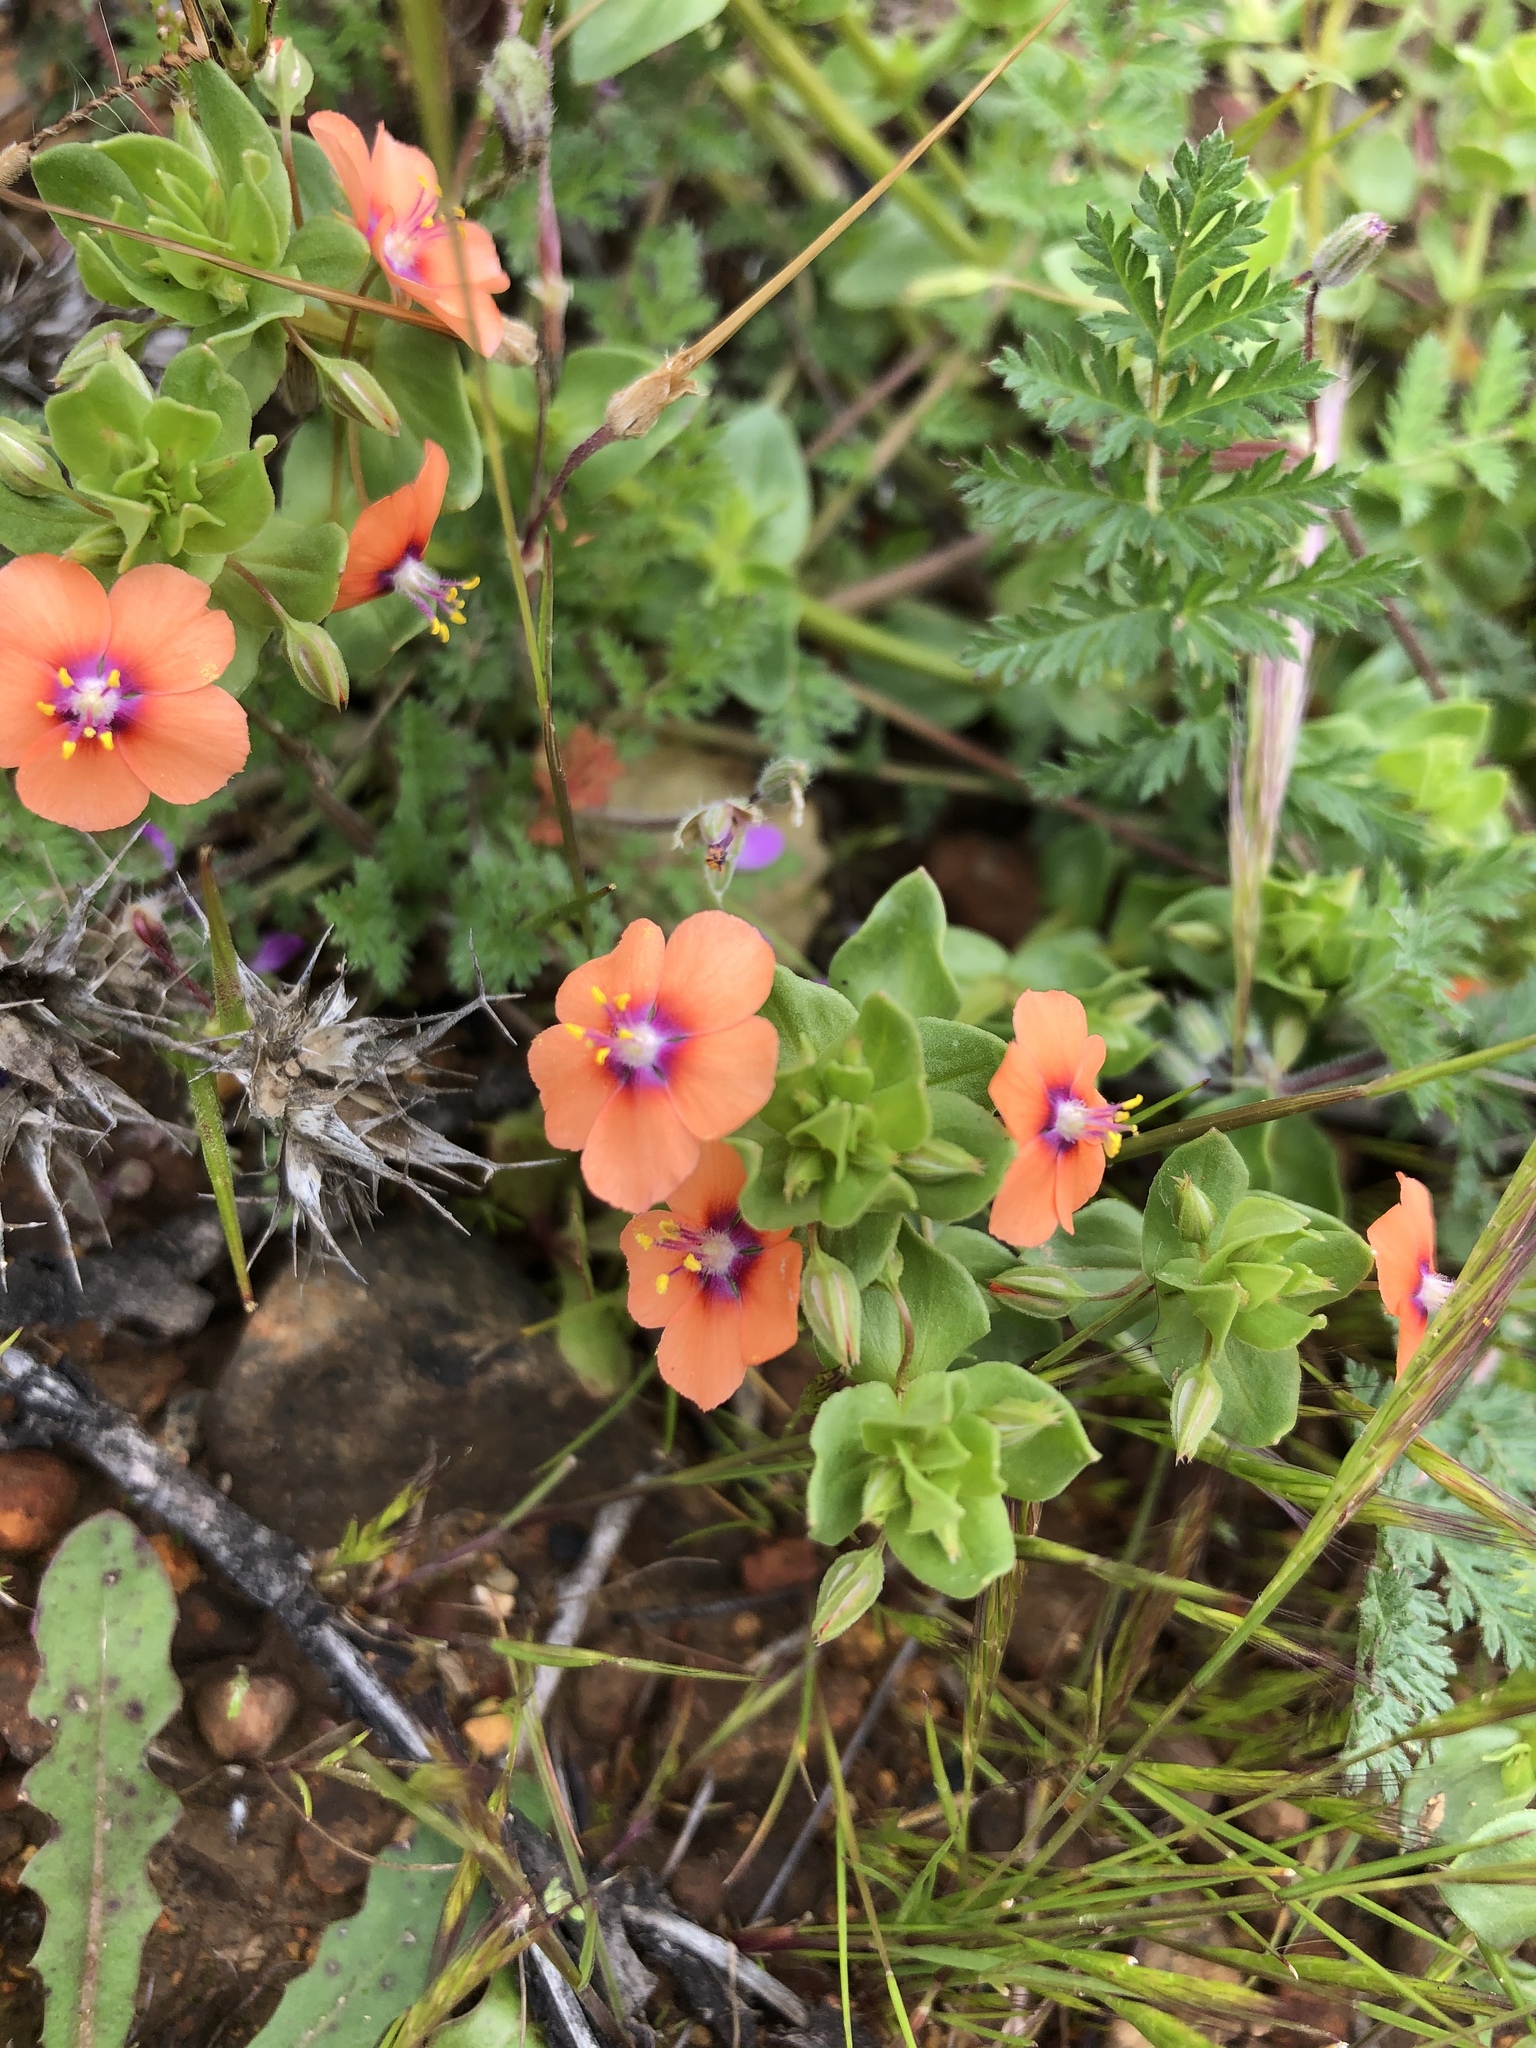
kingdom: Plantae
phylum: Tracheophyta
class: Magnoliopsida
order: Ericales
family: Primulaceae
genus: Lysimachia
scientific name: Lysimachia arvensis
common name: Scarlet pimpernel
